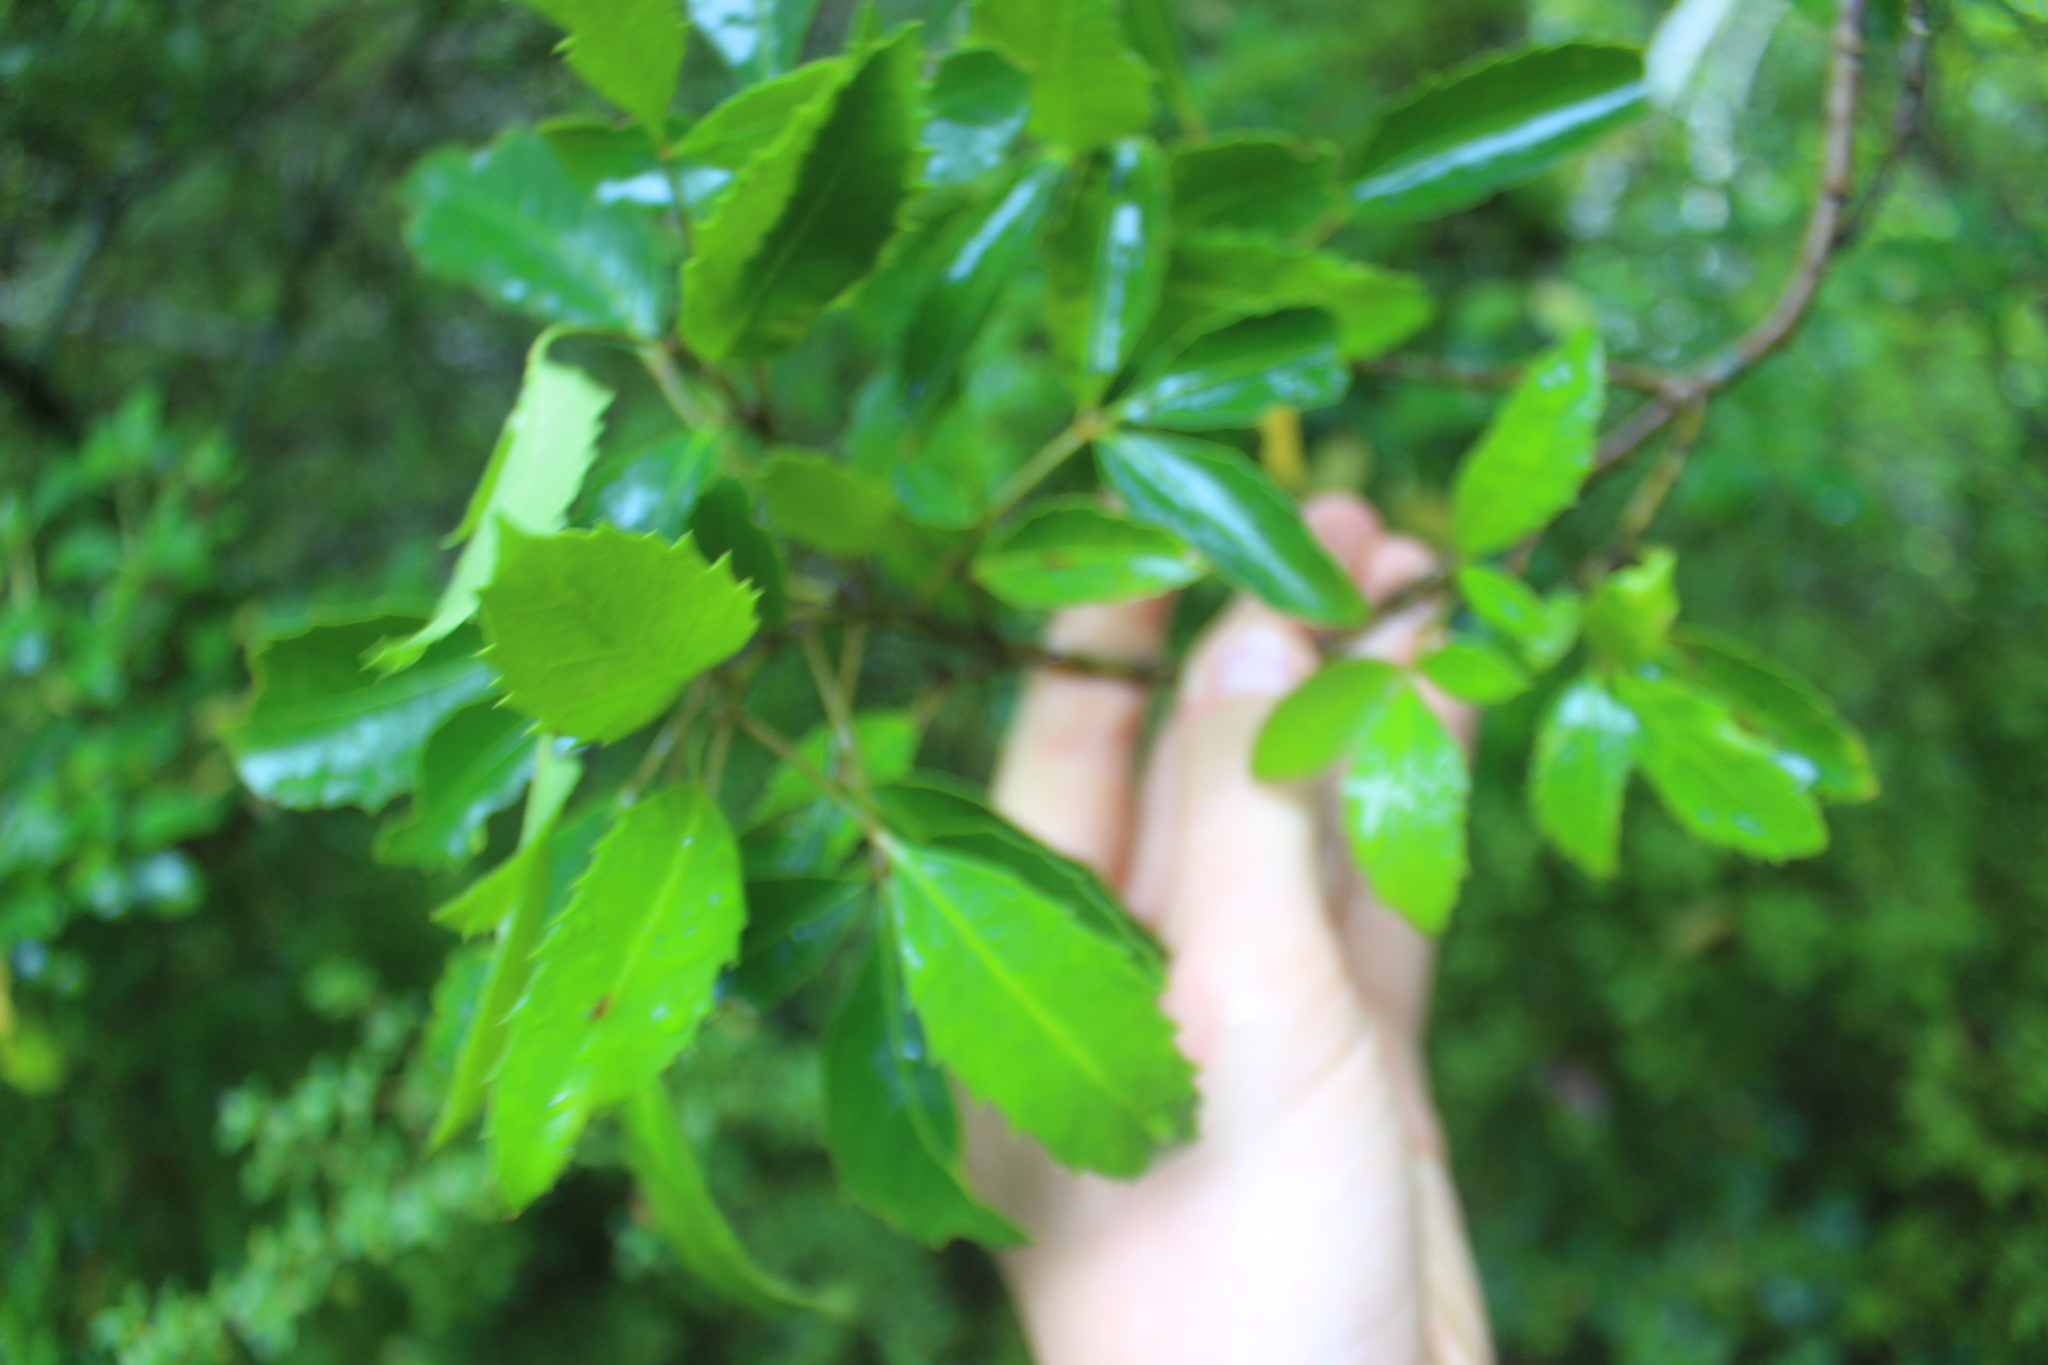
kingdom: Plantae
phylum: Tracheophyta
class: Magnoliopsida
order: Apiales
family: Araliaceae
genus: Raukaua
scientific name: Raukaua simplex
